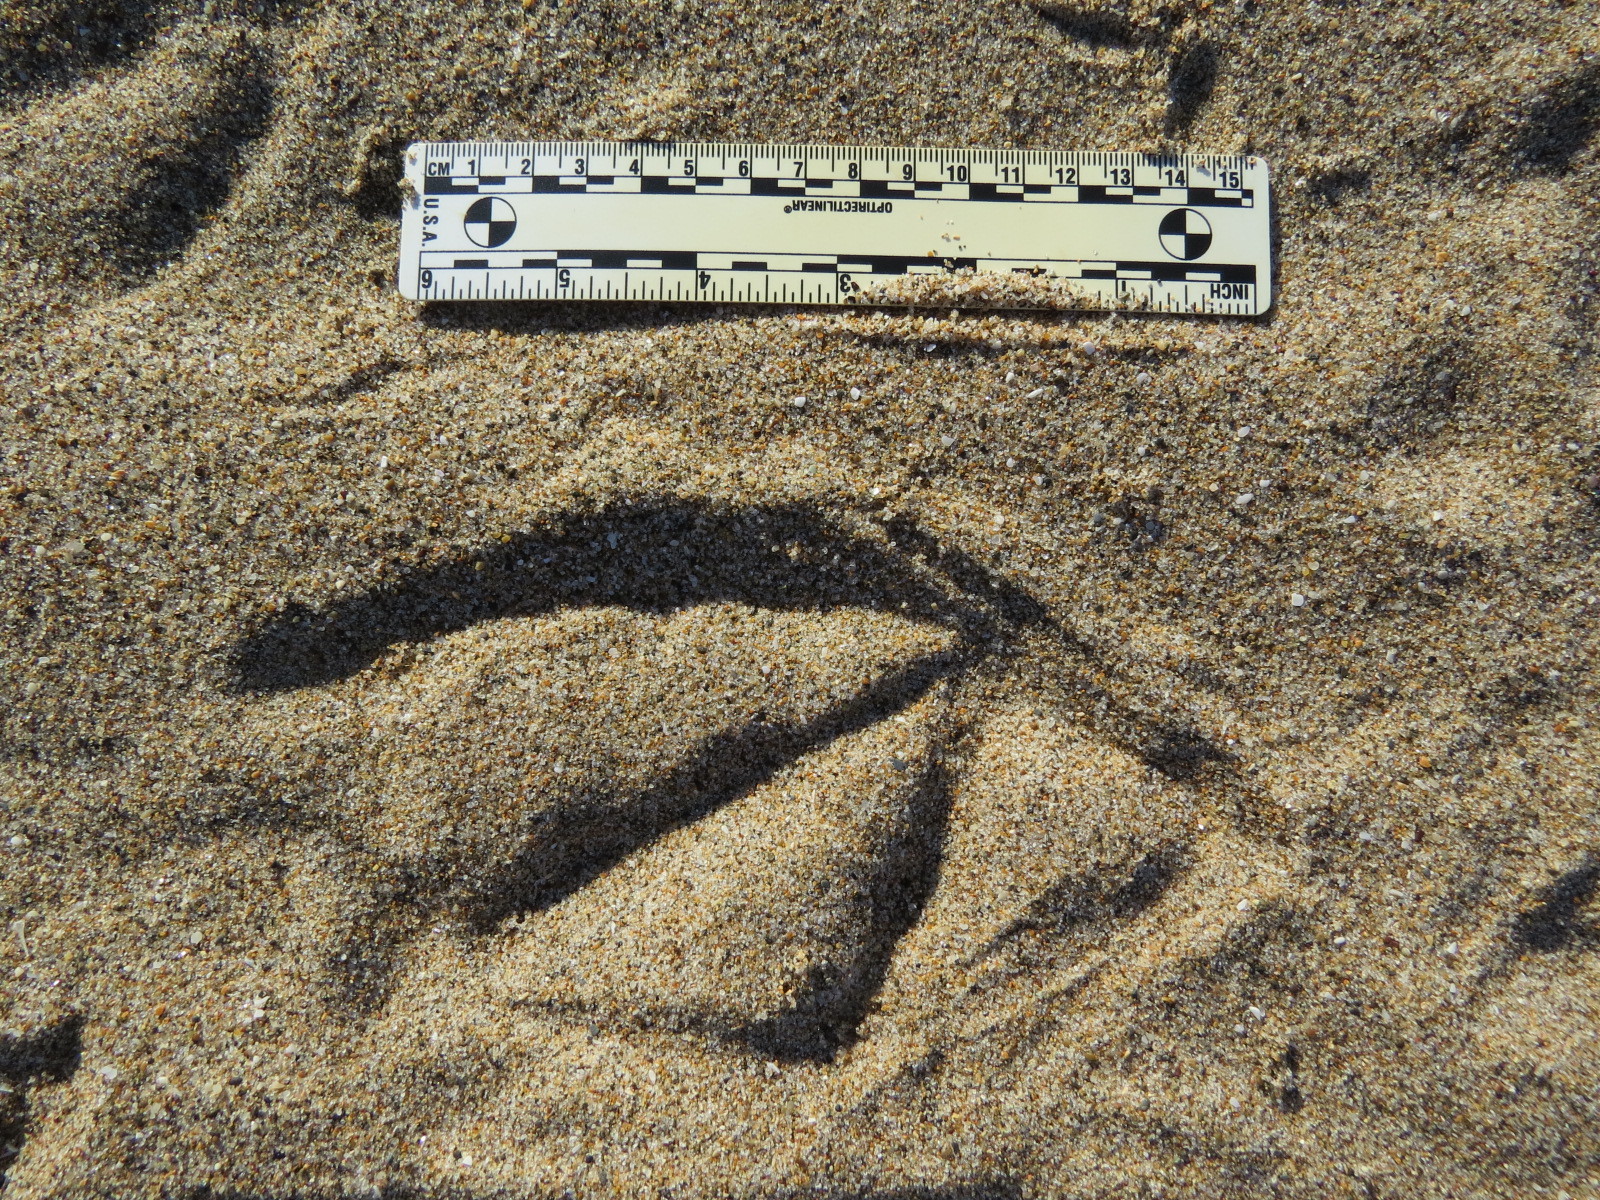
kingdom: Animalia
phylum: Chordata
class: Aves
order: Pelecaniformes
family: Pelecanidae
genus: Pelecanus
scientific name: Pelecanus occidentalis
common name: Brown pelican
